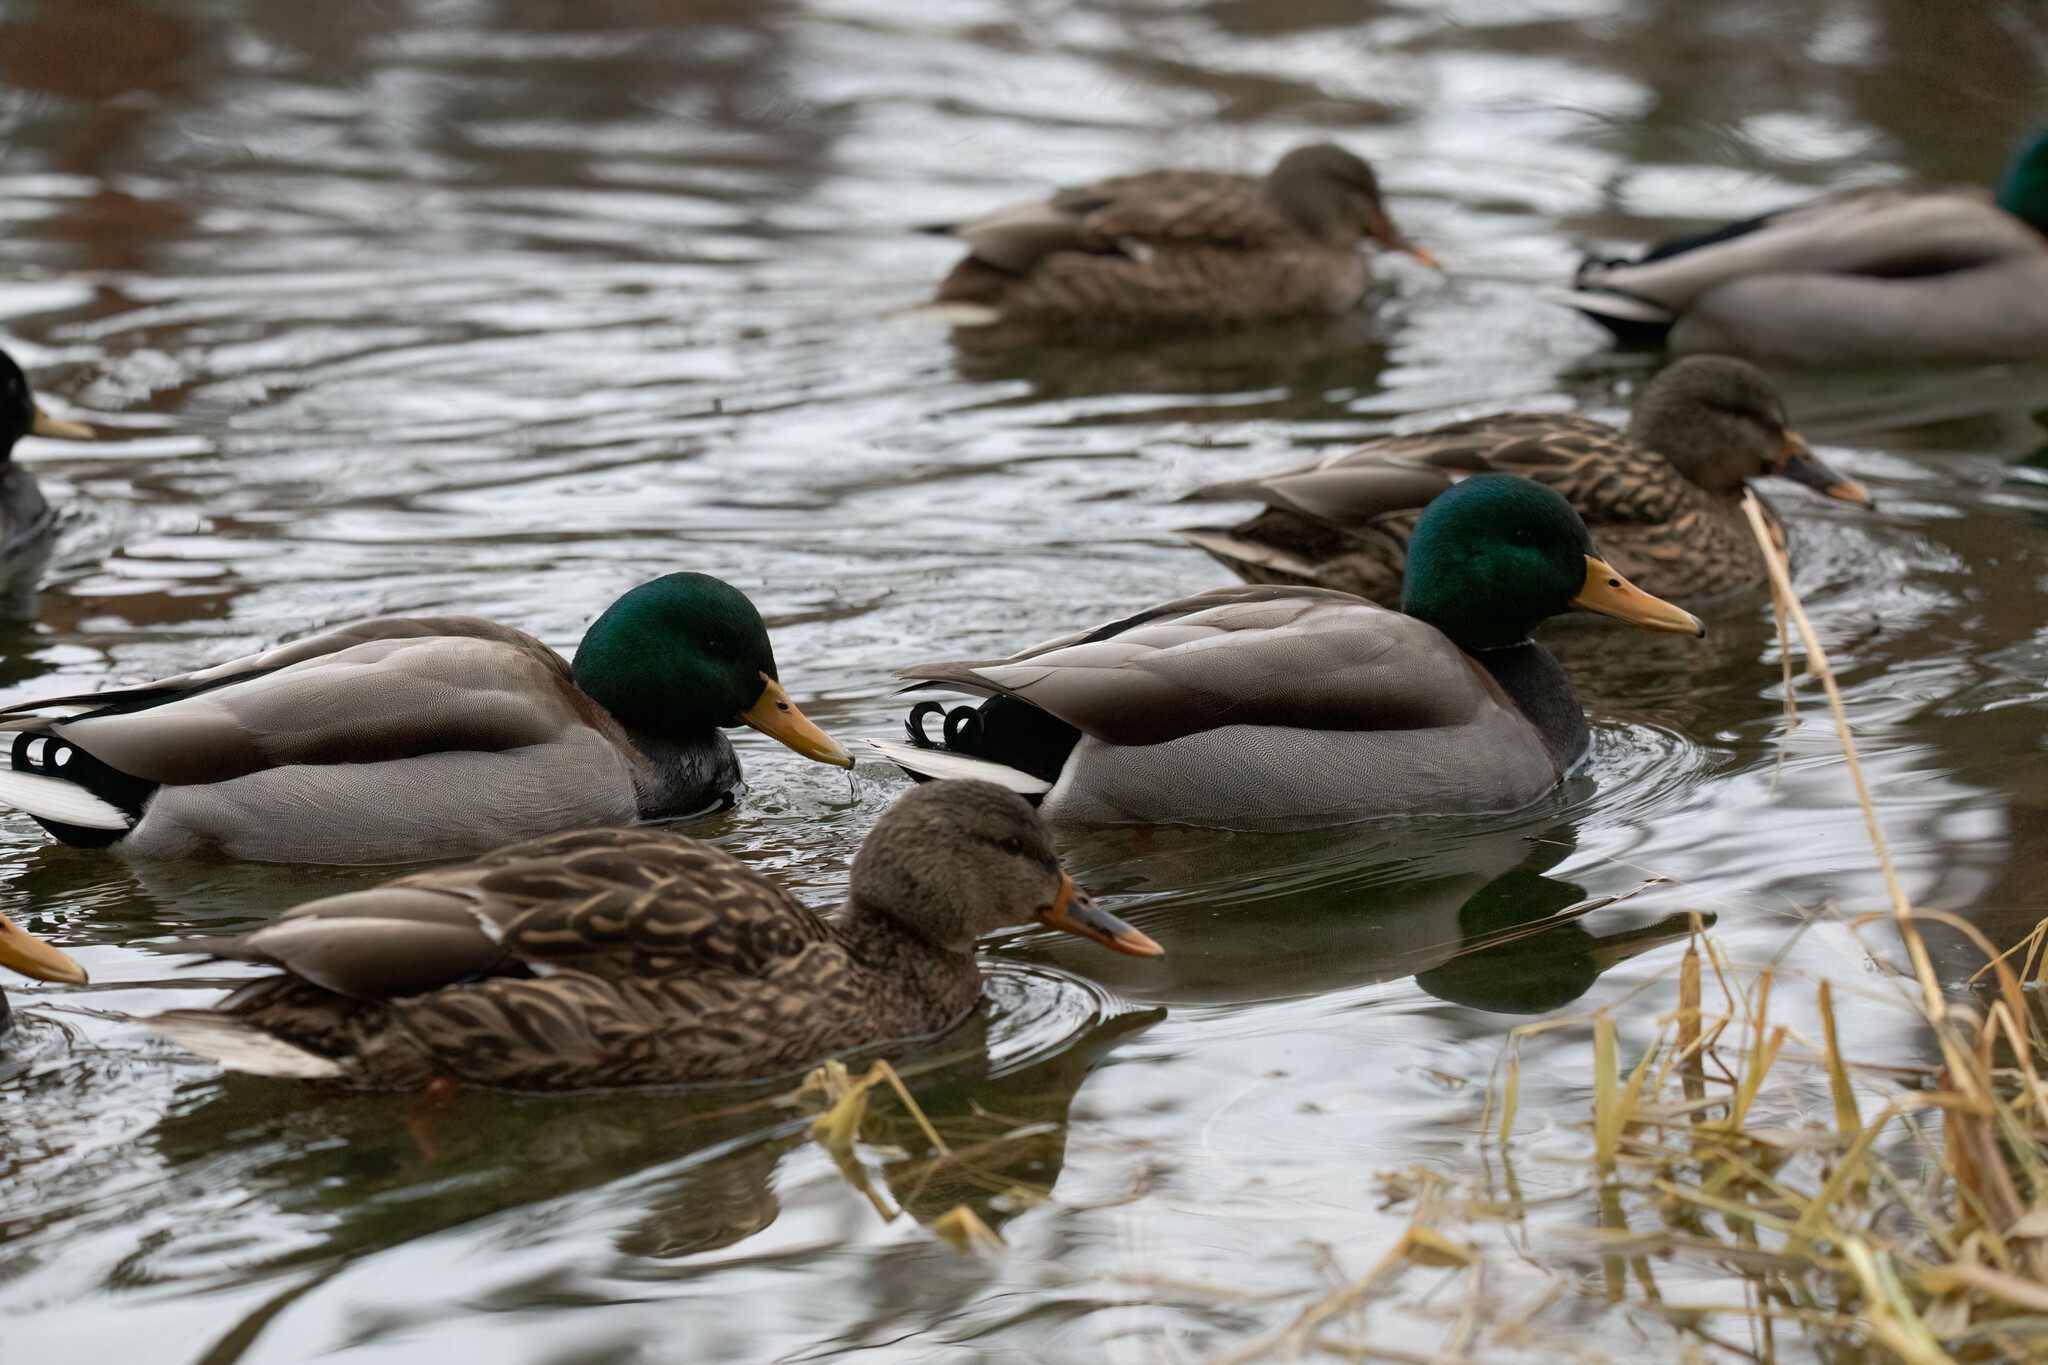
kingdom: Animalia
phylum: Chordata
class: Aves
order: Anseriformes
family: Anatidae
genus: Anas
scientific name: Anas platyrhynchos
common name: Mallard
